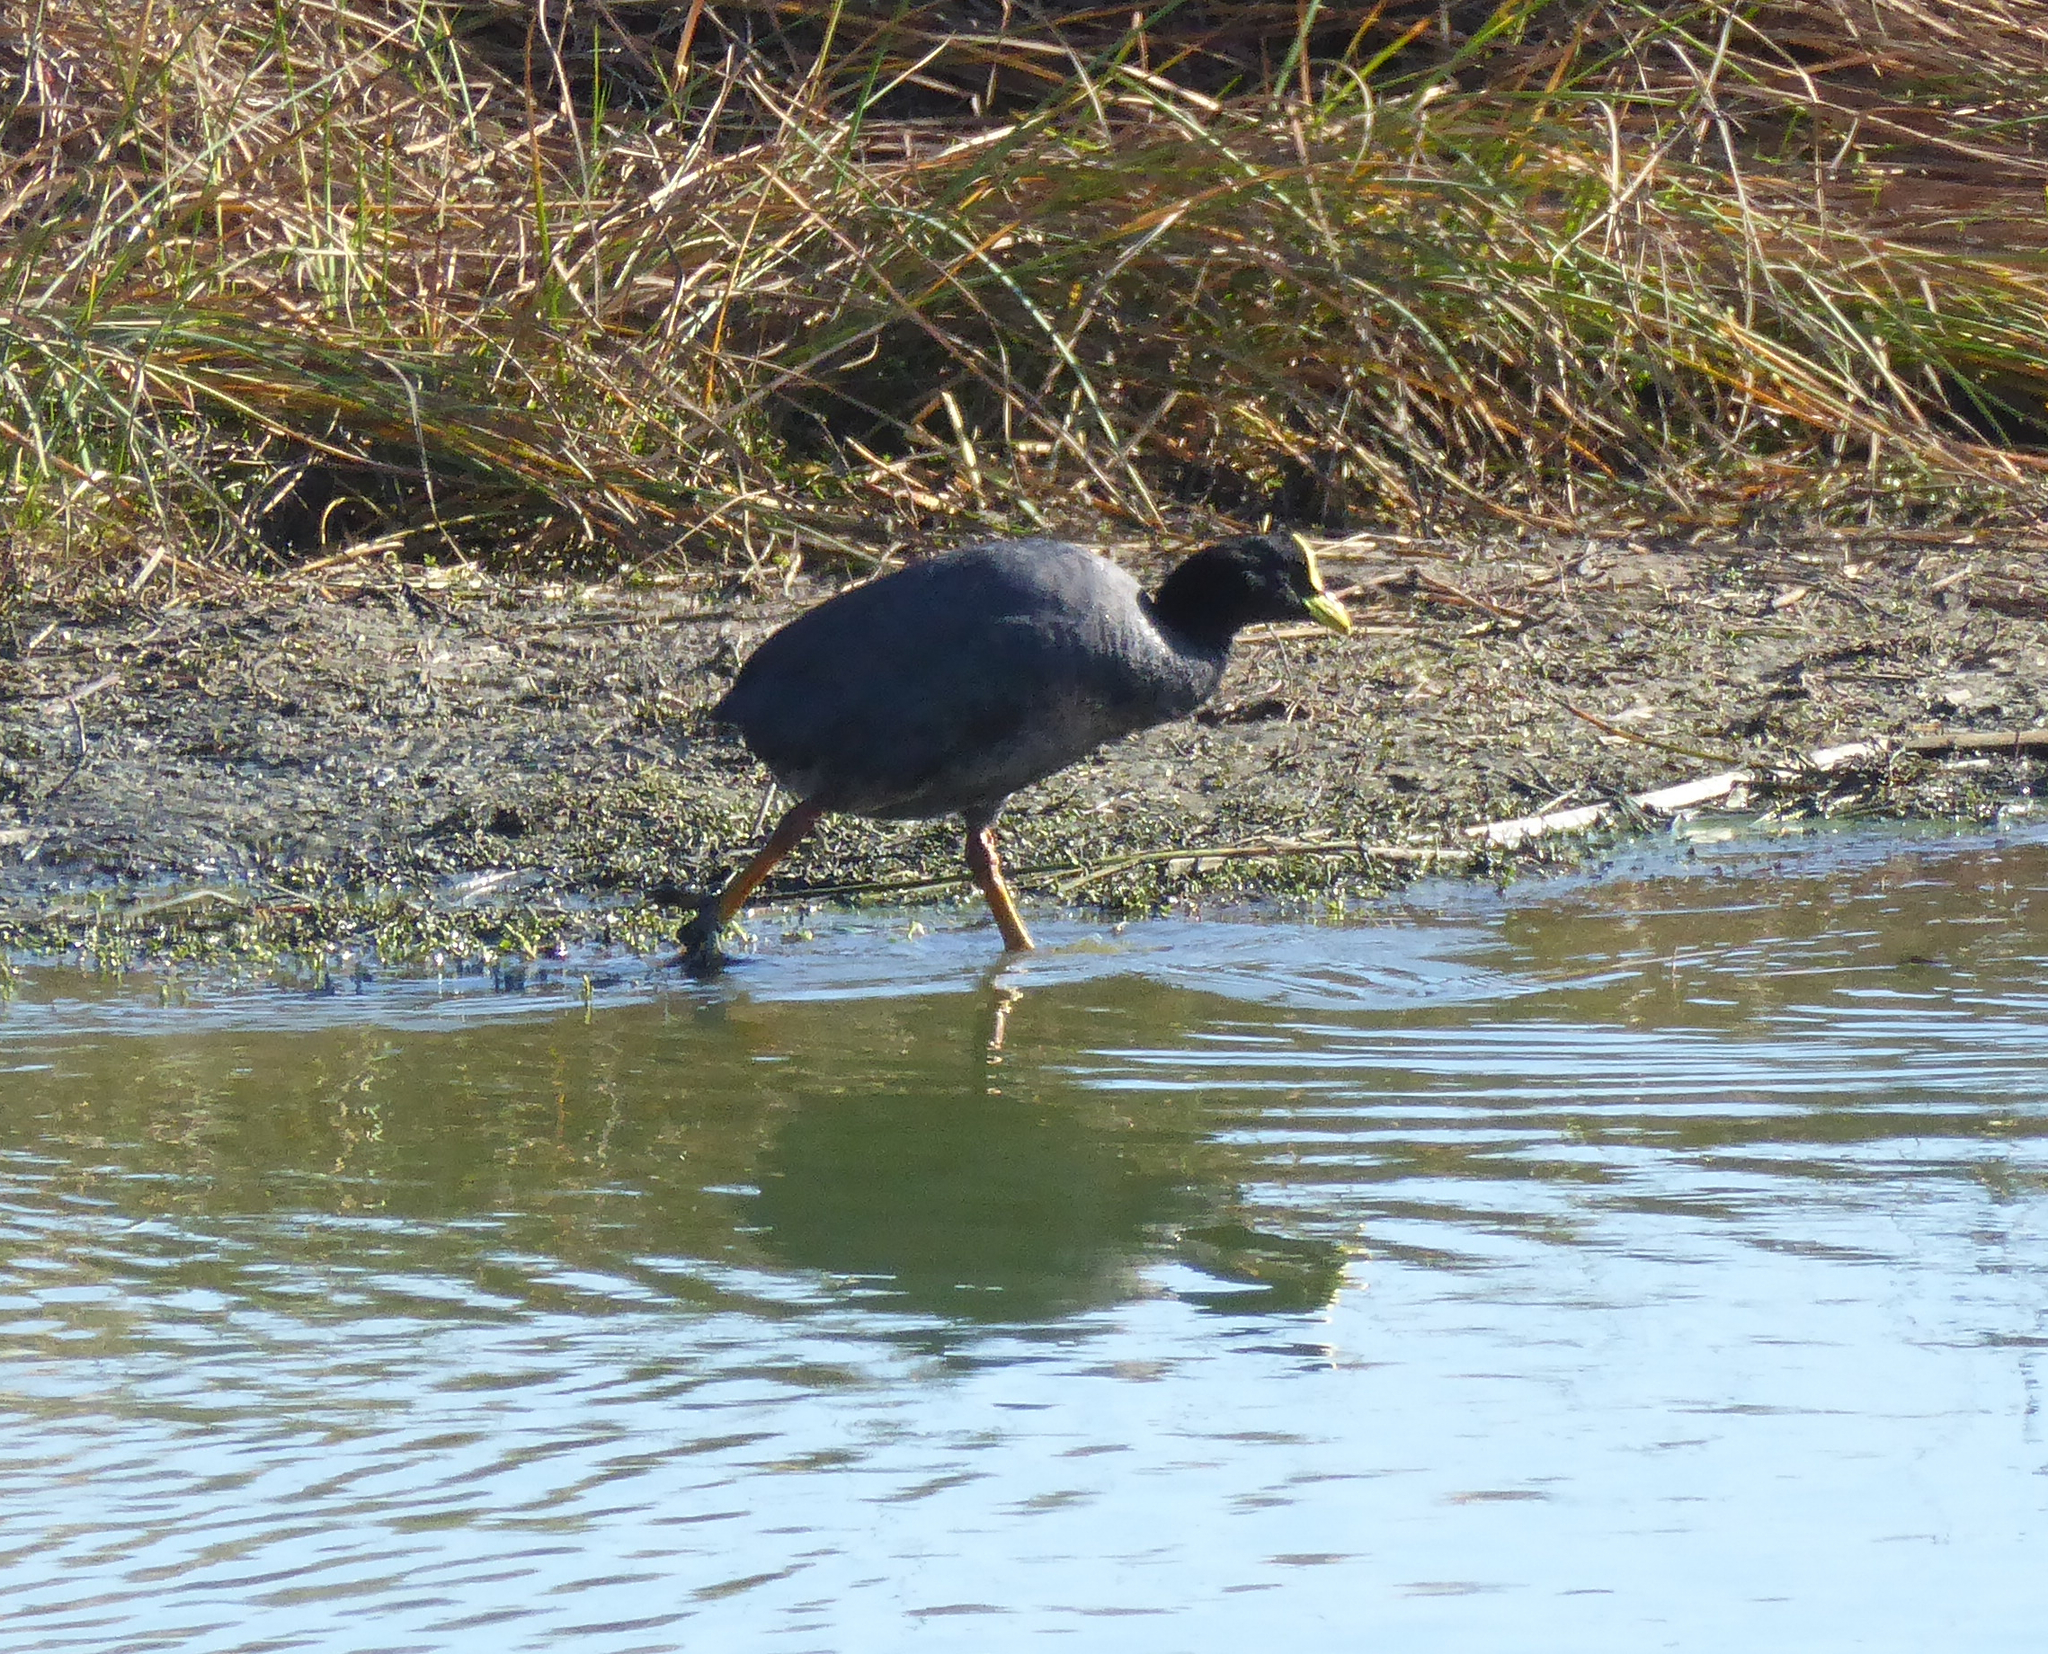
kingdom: Animalia
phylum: Chordata
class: Aves
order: Gruiformes
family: Rallidae
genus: Fulica
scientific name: Fulica armillata
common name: Red-gartered coot
